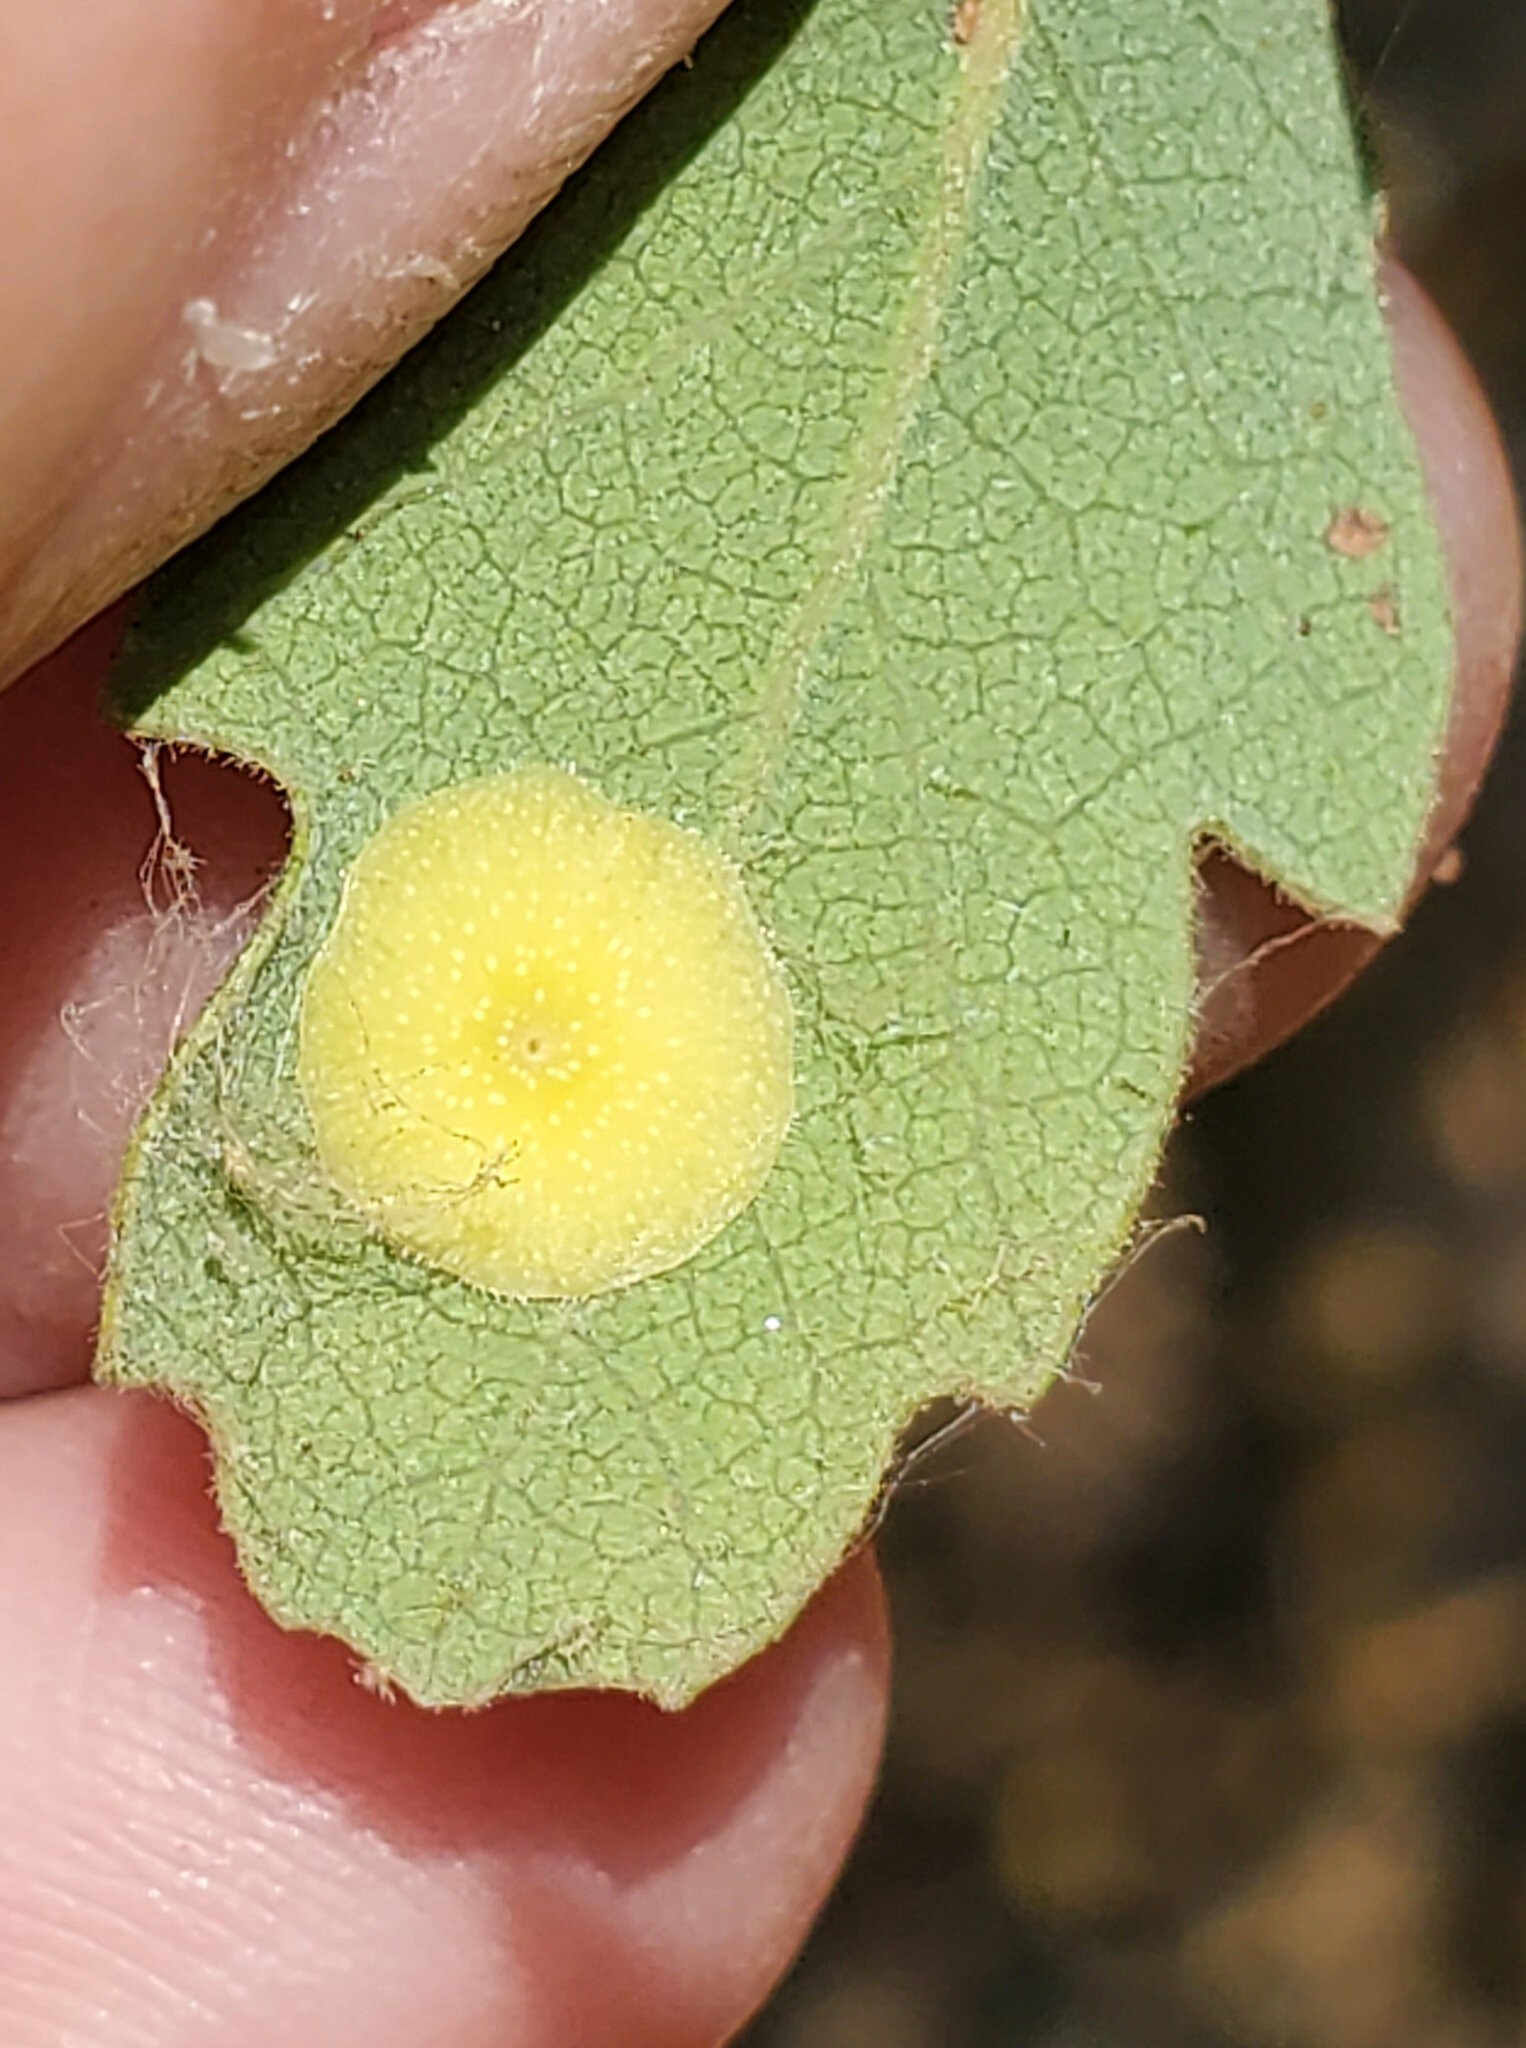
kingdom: Animalia
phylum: Arthropoda
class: Insecta
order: Hymenoptera
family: Cynipidae
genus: Andricus
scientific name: Andricus
